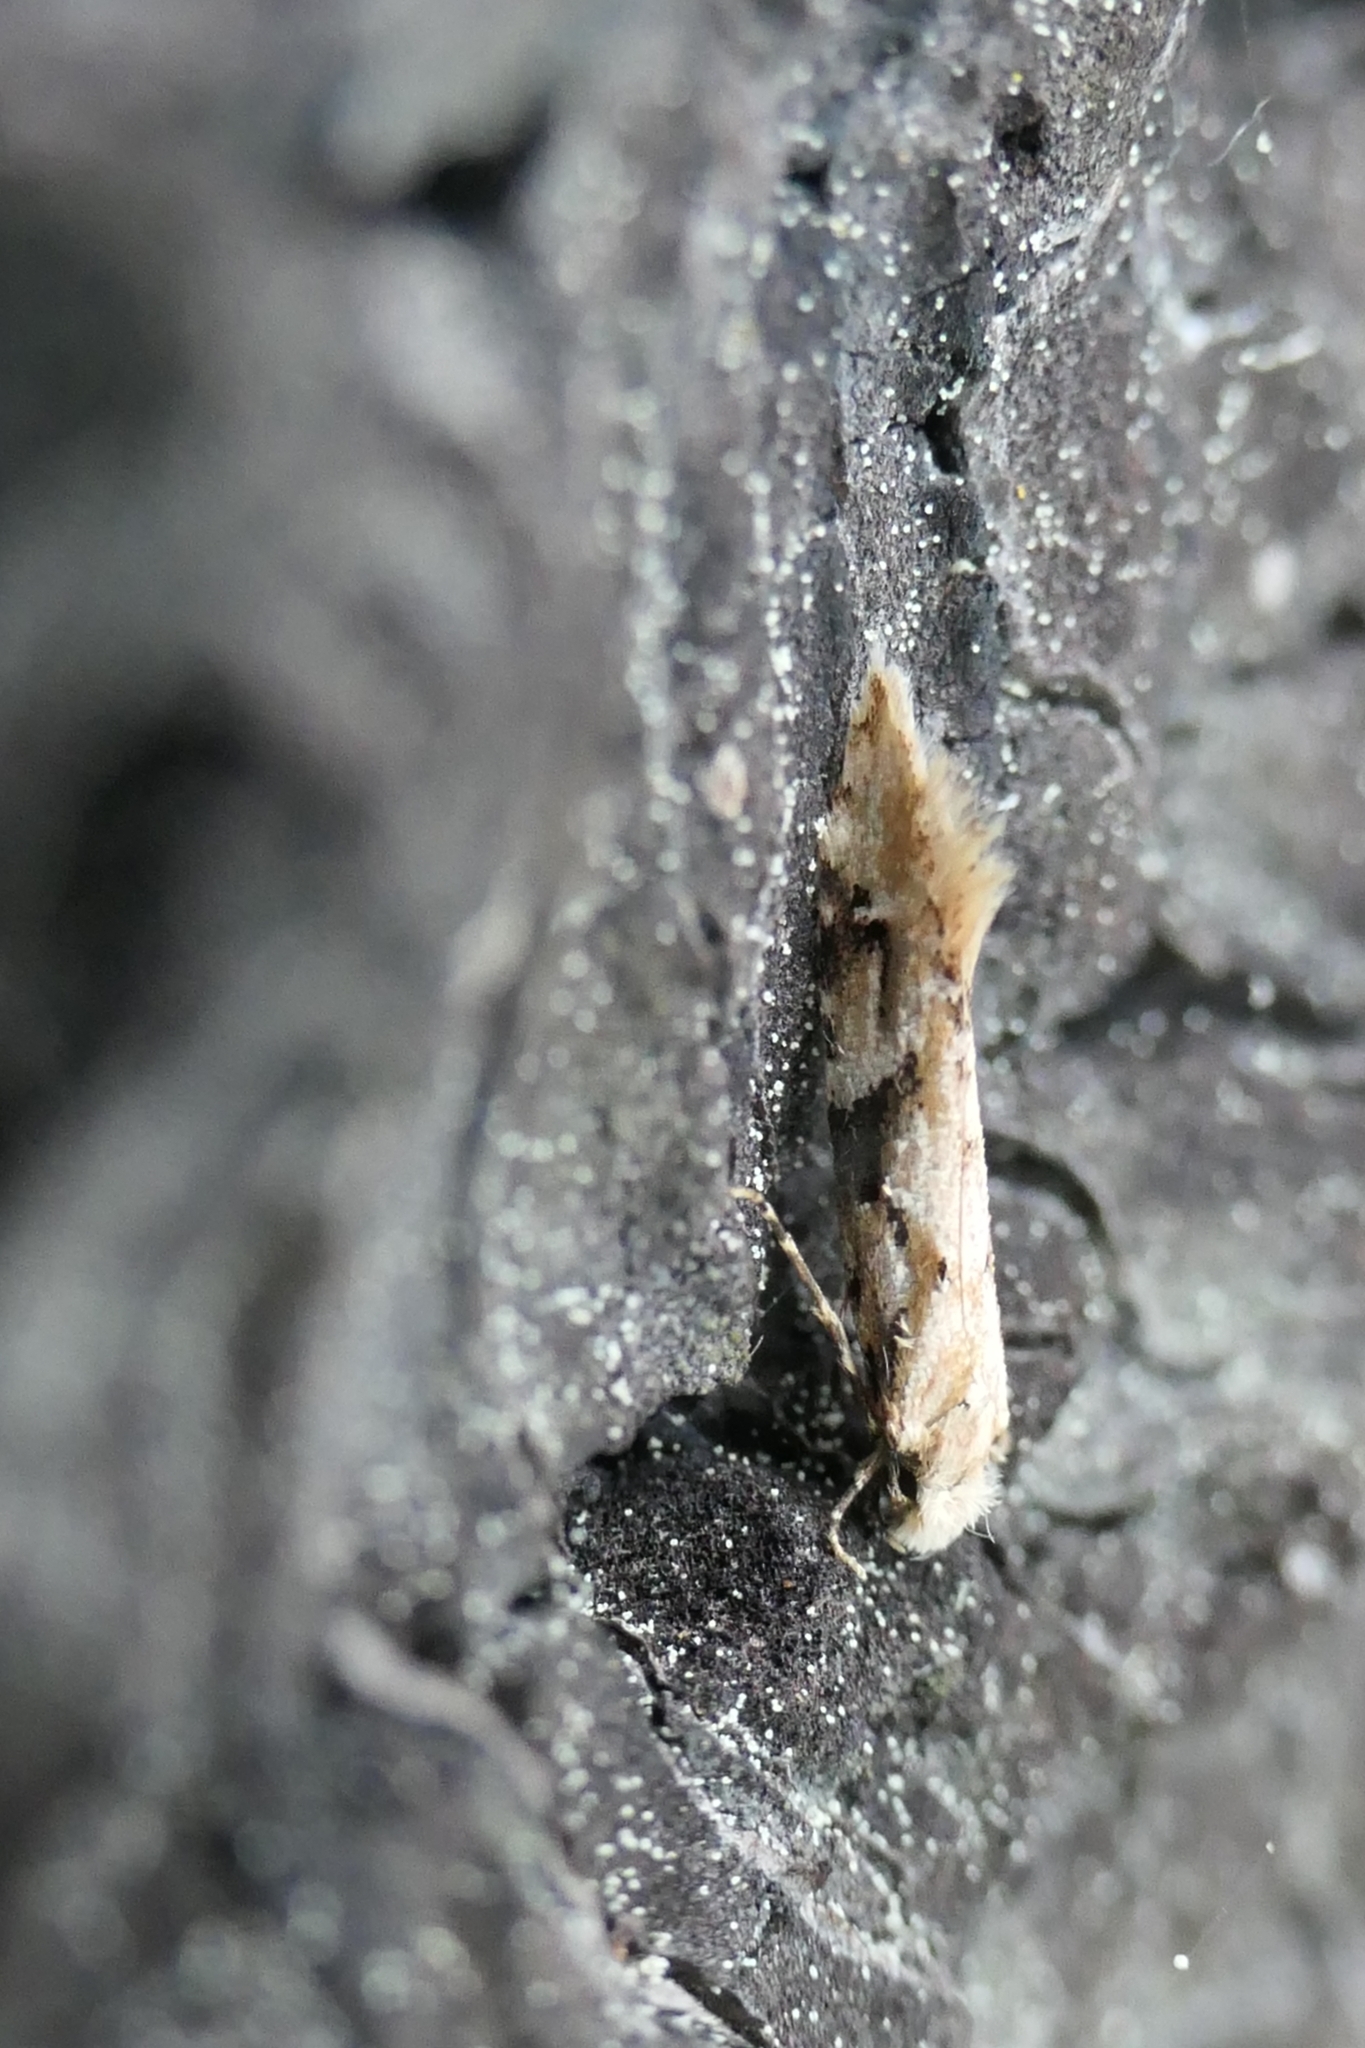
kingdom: Animalia
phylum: Arthropoda
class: Insecta
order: Lepidoptera
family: Tineidae
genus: Crypsitricha
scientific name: Crypsitricha mesotypa
